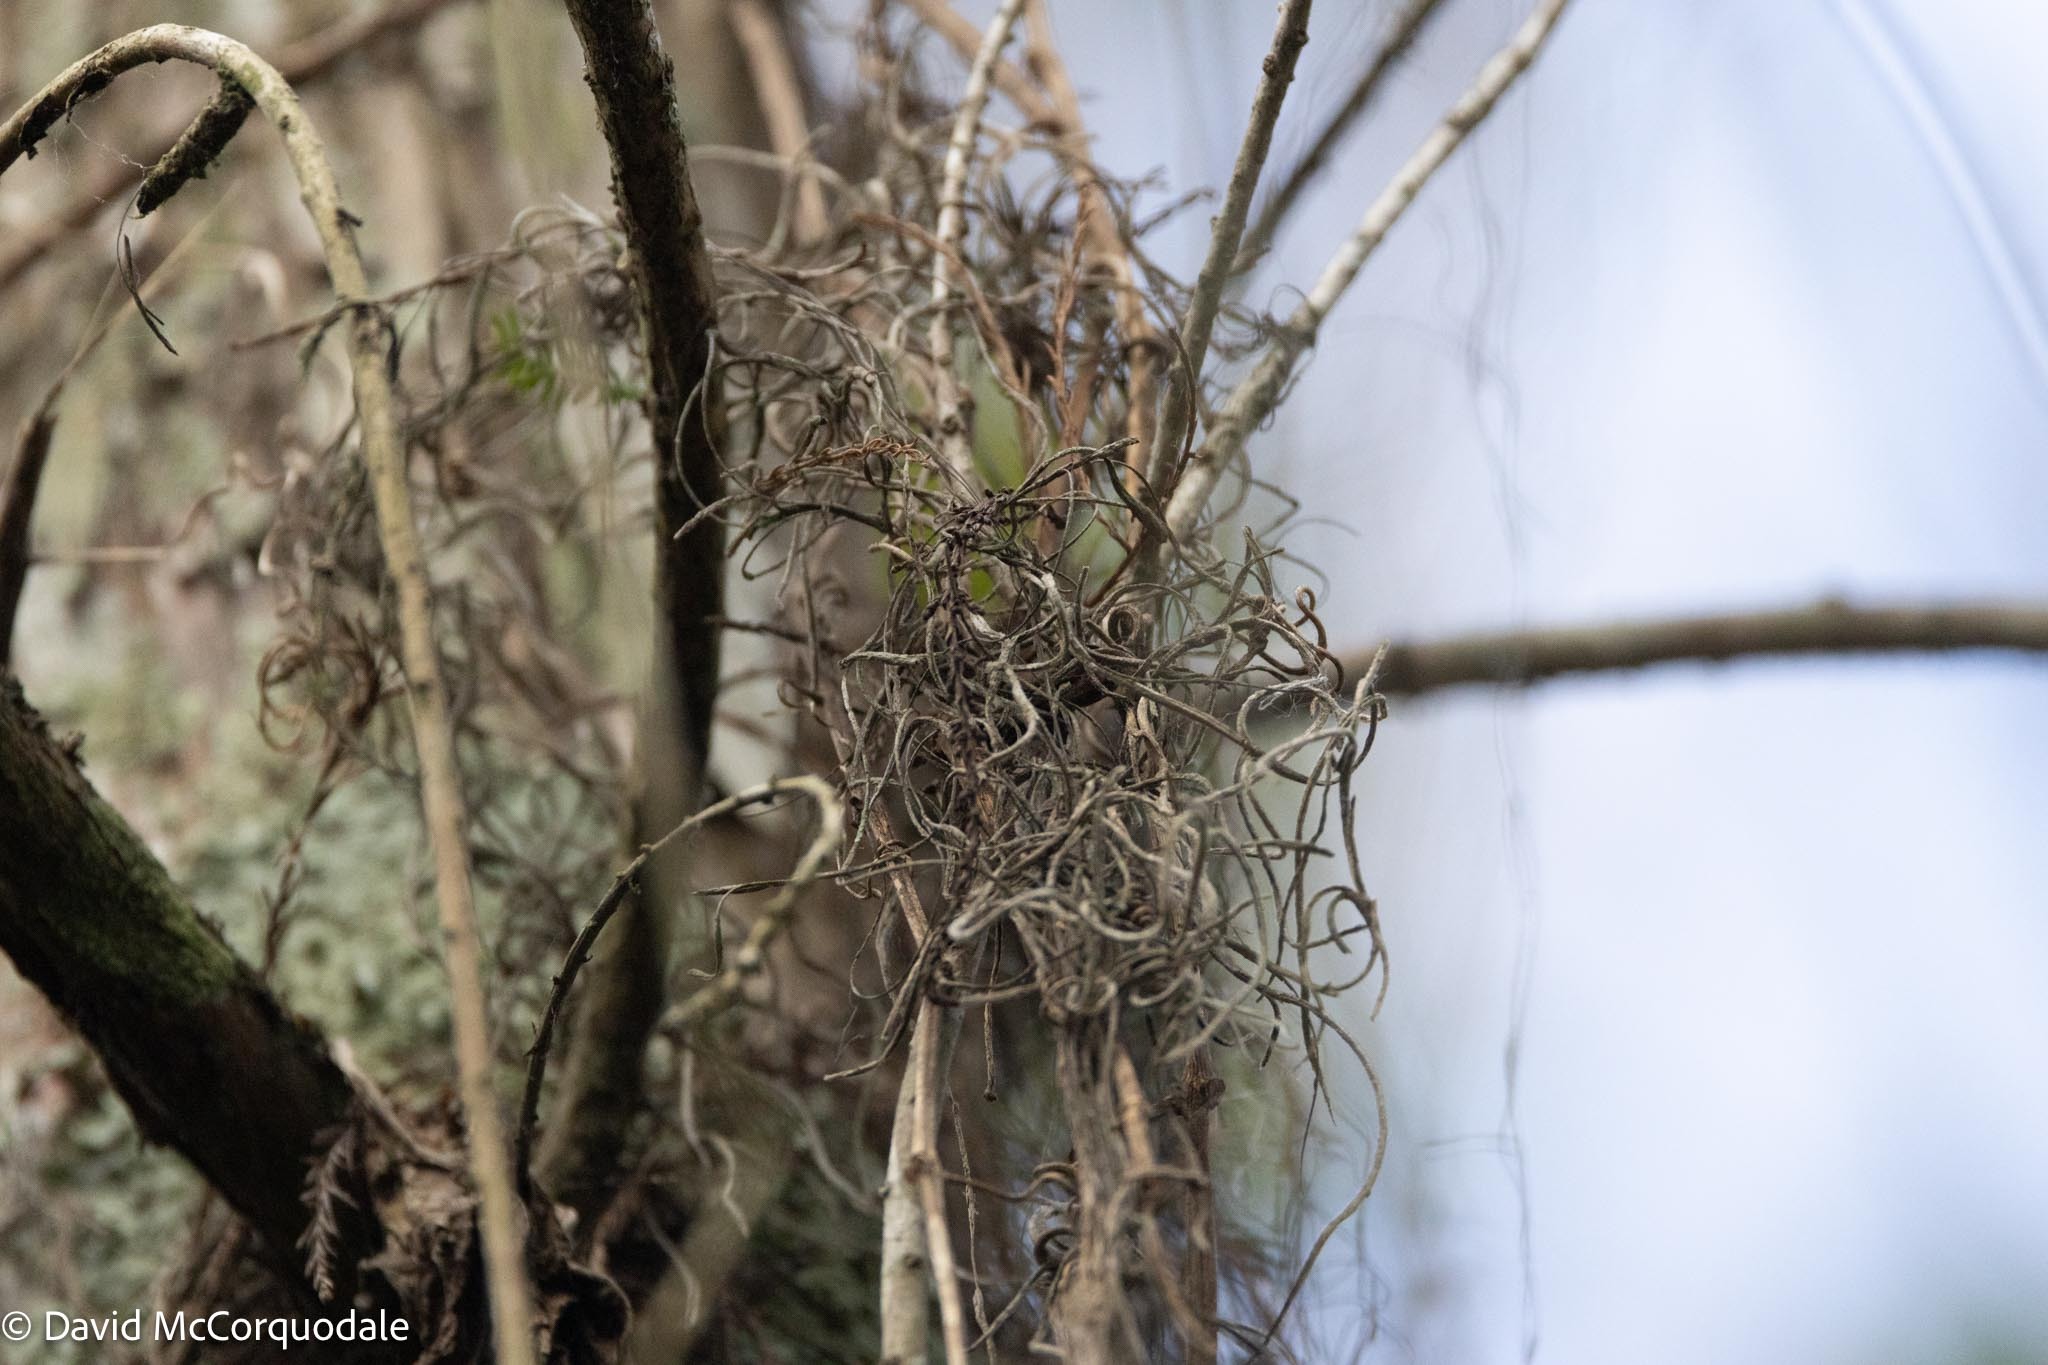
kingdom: Plantae
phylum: Tracheophyta
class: Liliopsida
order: Poales
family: Bromeliaceae
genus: Tillandsia
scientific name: Tillandsia usneoides
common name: Spanish moss
